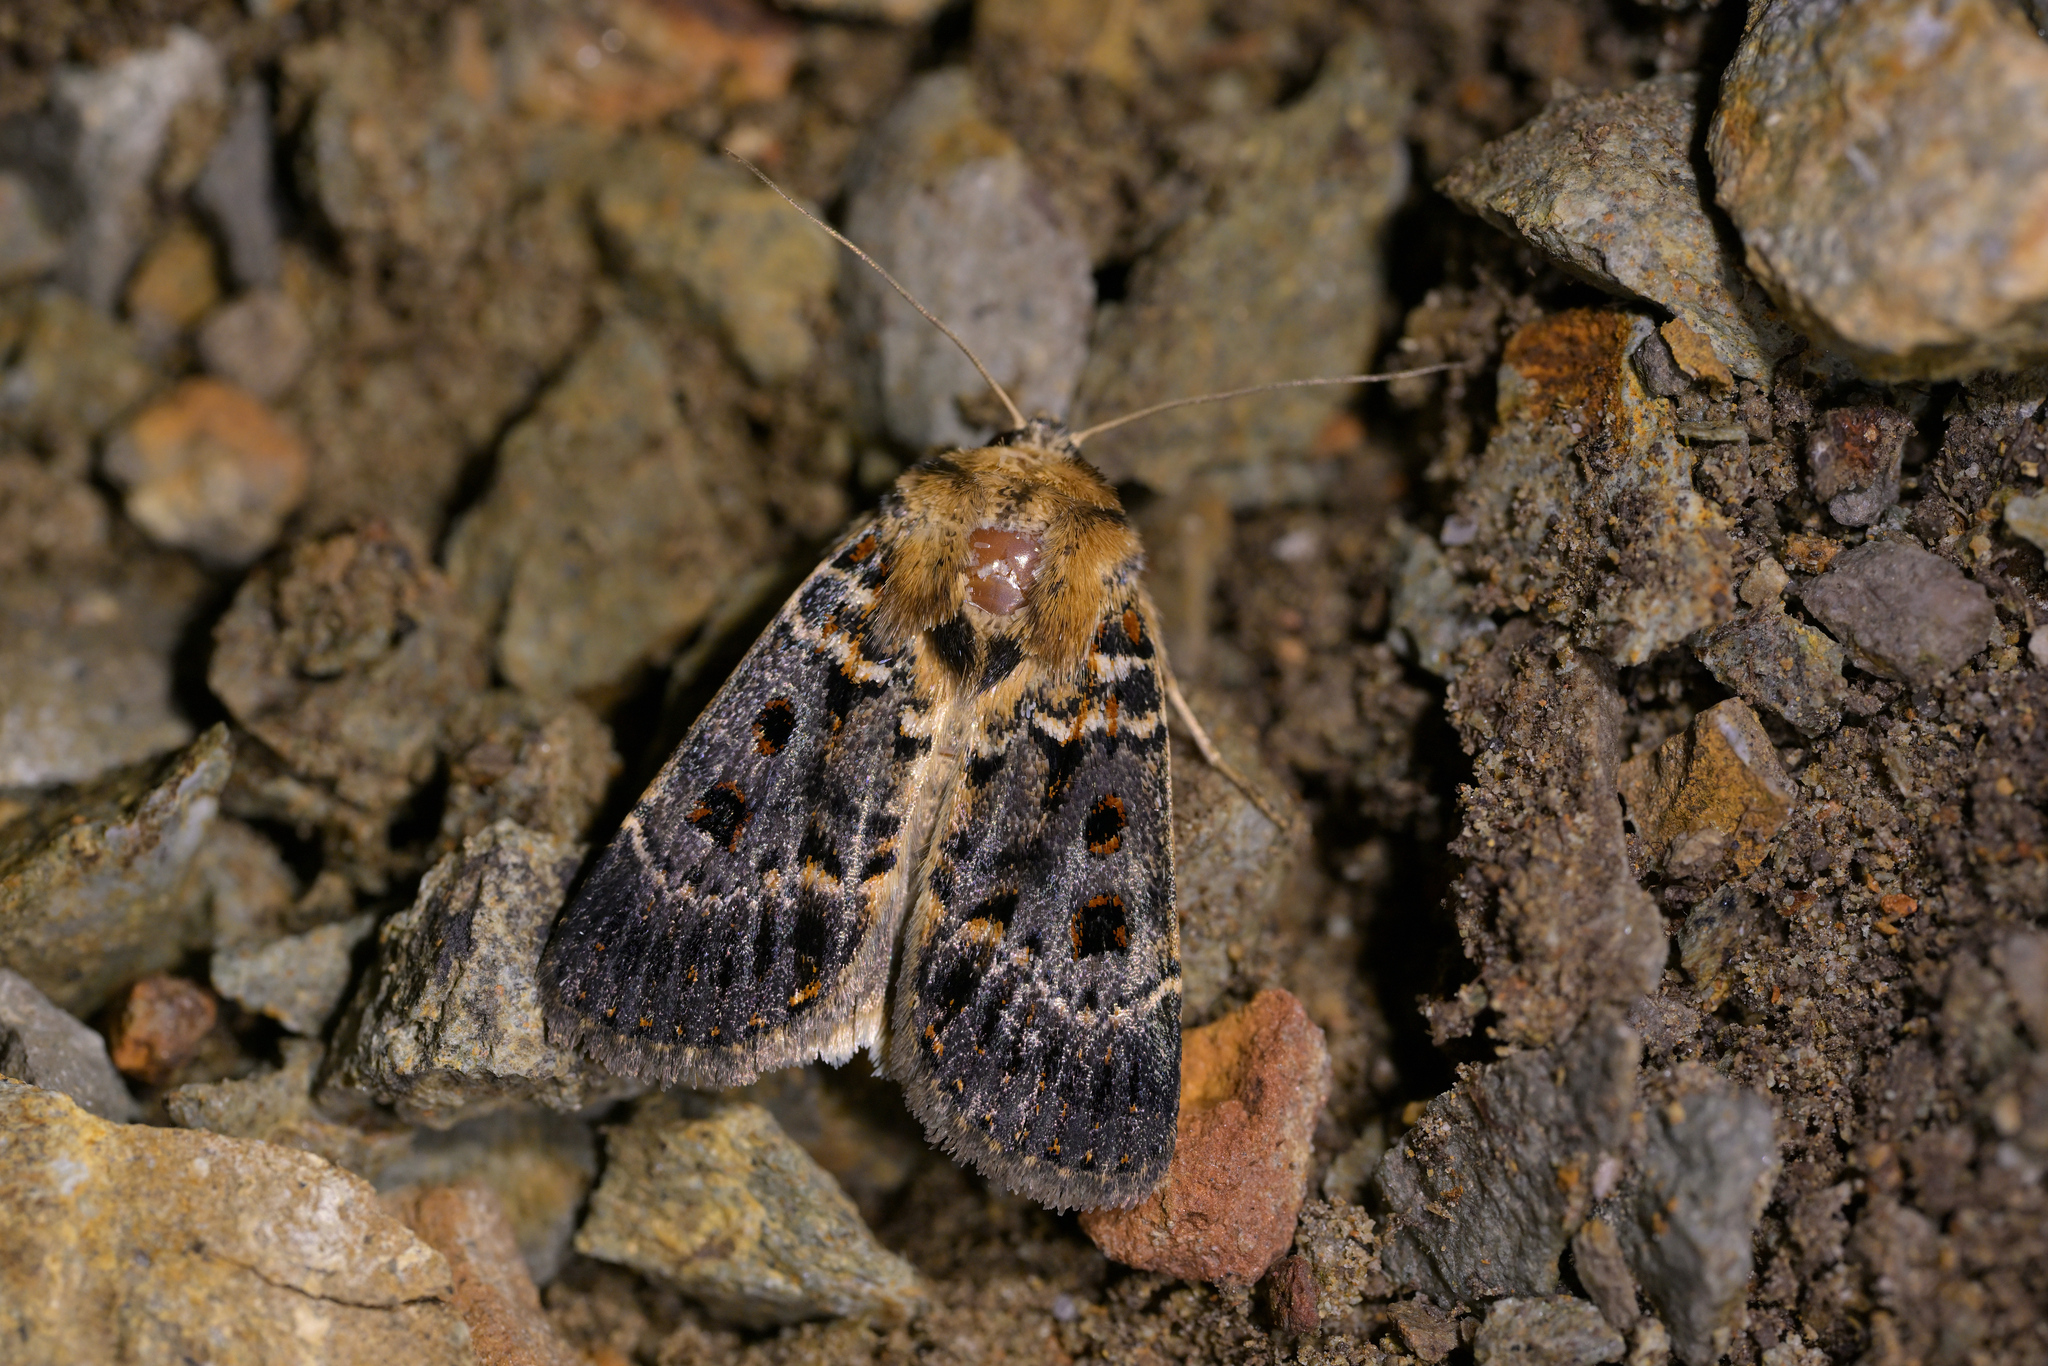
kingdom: Animalia
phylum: Arthropoda
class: Insecta
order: Lepidoptera
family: Noctuidae
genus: Proteuxoa
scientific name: Proteuxoa sanguinipuncta
